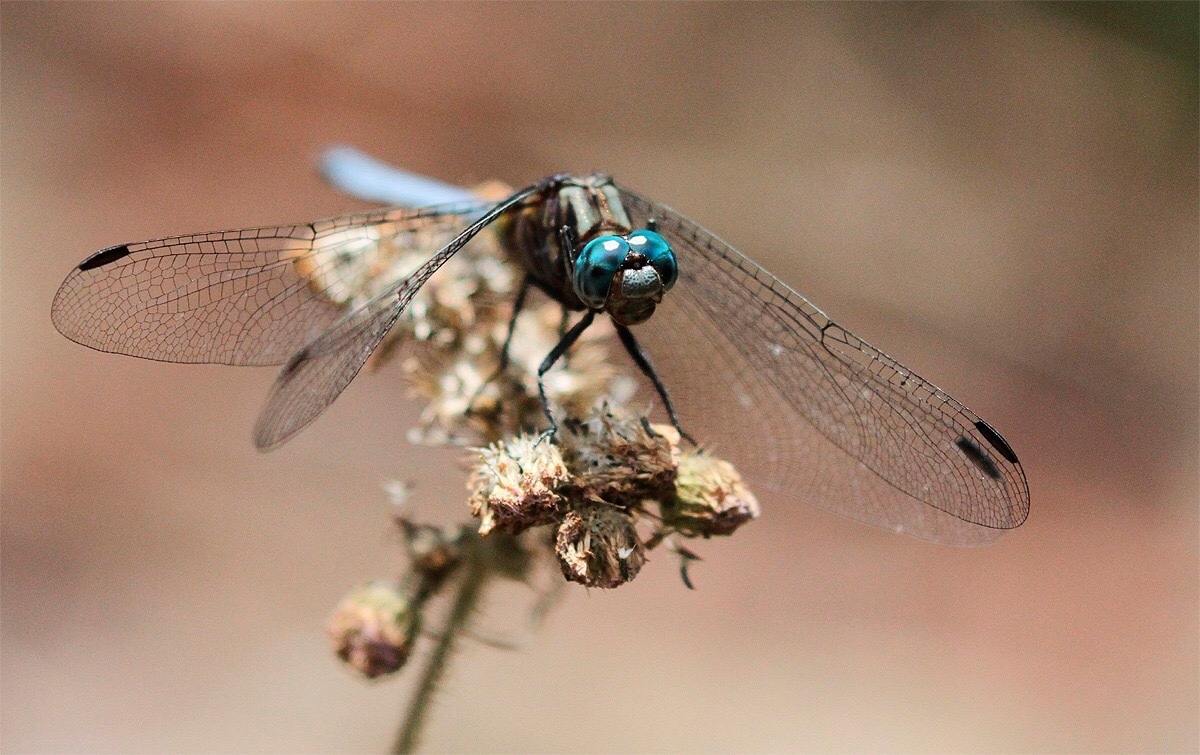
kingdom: Animalia
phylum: Arthropoda
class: Insecta
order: Odonata
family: Libellulidae
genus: Orthetrum
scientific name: Orthetrum julia
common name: Julia skimmer
